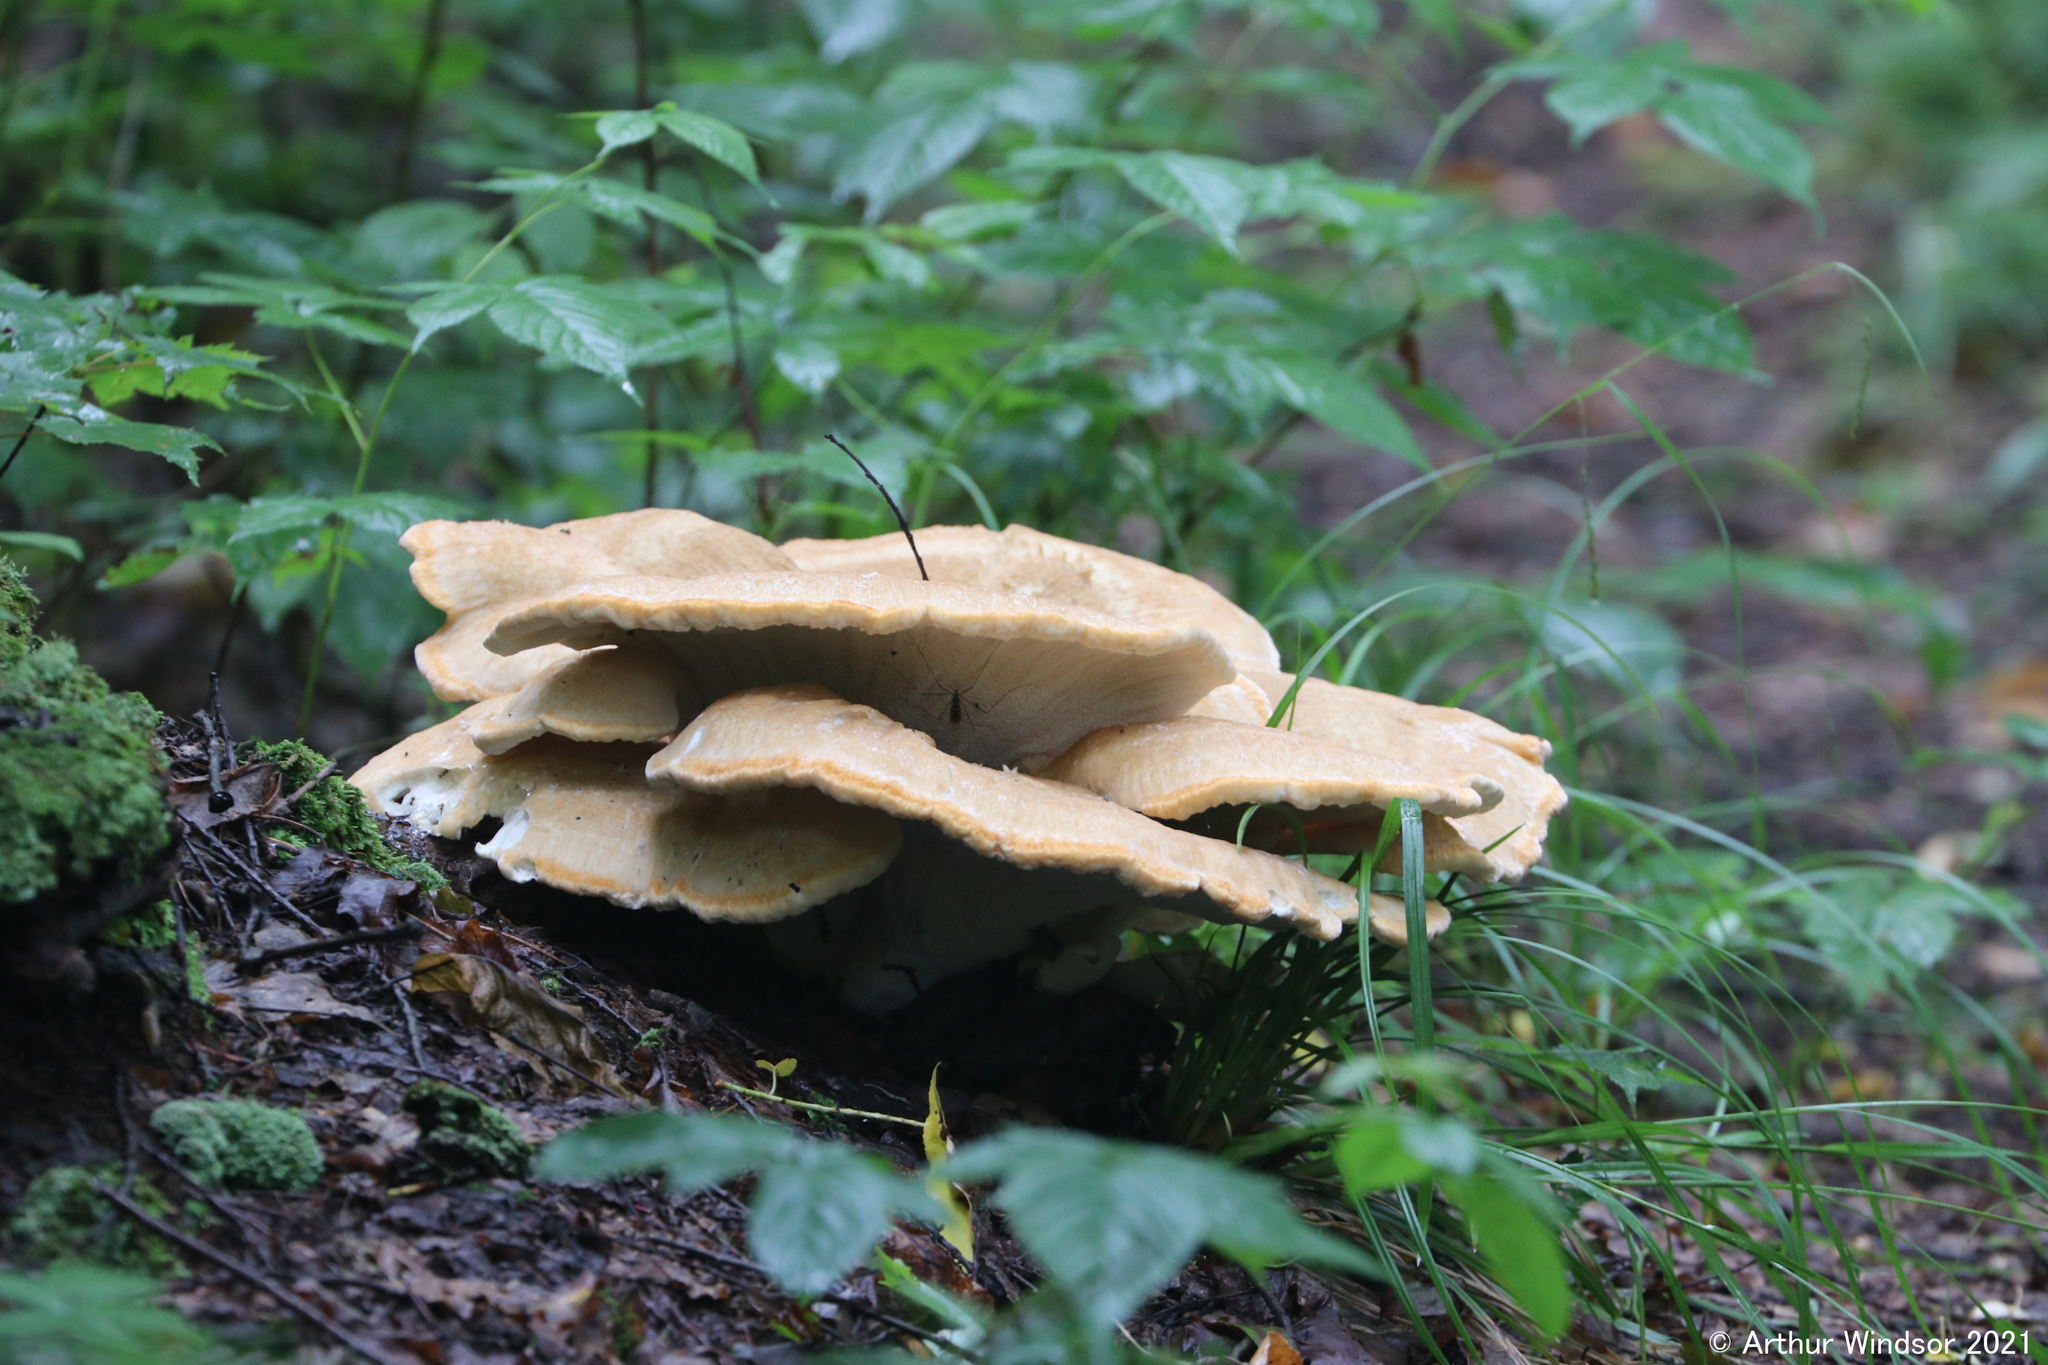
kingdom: Fungi
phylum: Basidiomycota
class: Agaricomycetes
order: Russulales
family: Bondarzewiaceae
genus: Bondarzewia
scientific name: Bondarzewia berkeleyi
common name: Berkeley's polypore
